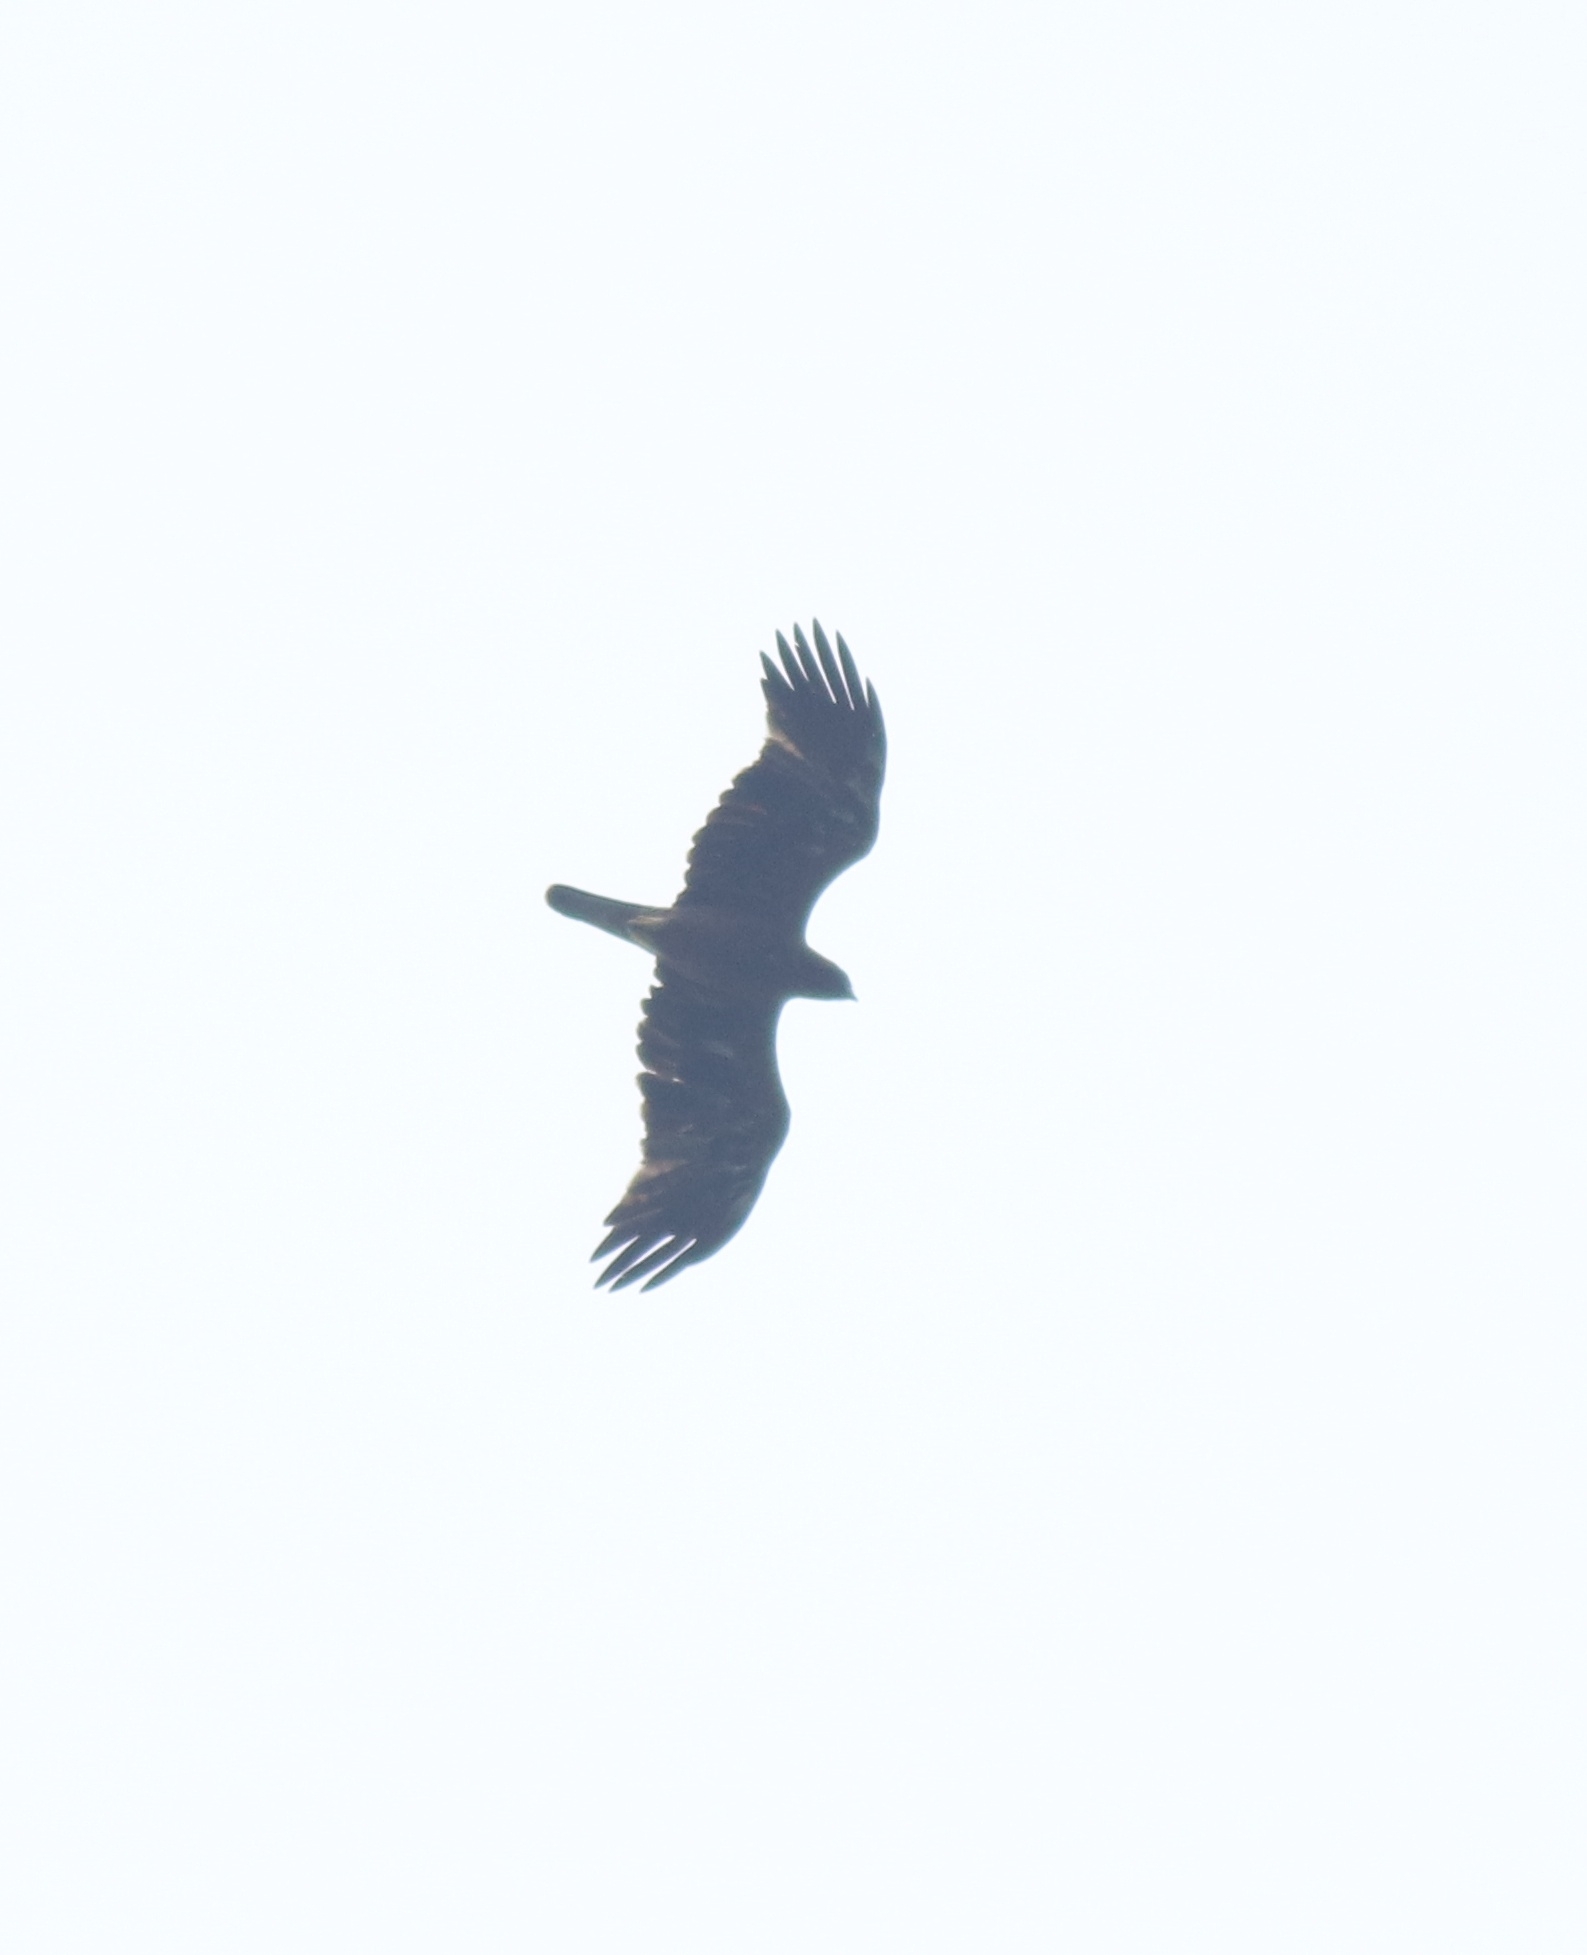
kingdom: Animalia
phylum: Chordata
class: Aves
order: Accipitriformes
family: Accipitridae
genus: Hieraaetus
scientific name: Hieraaetus pennatus
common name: Booted eagle
